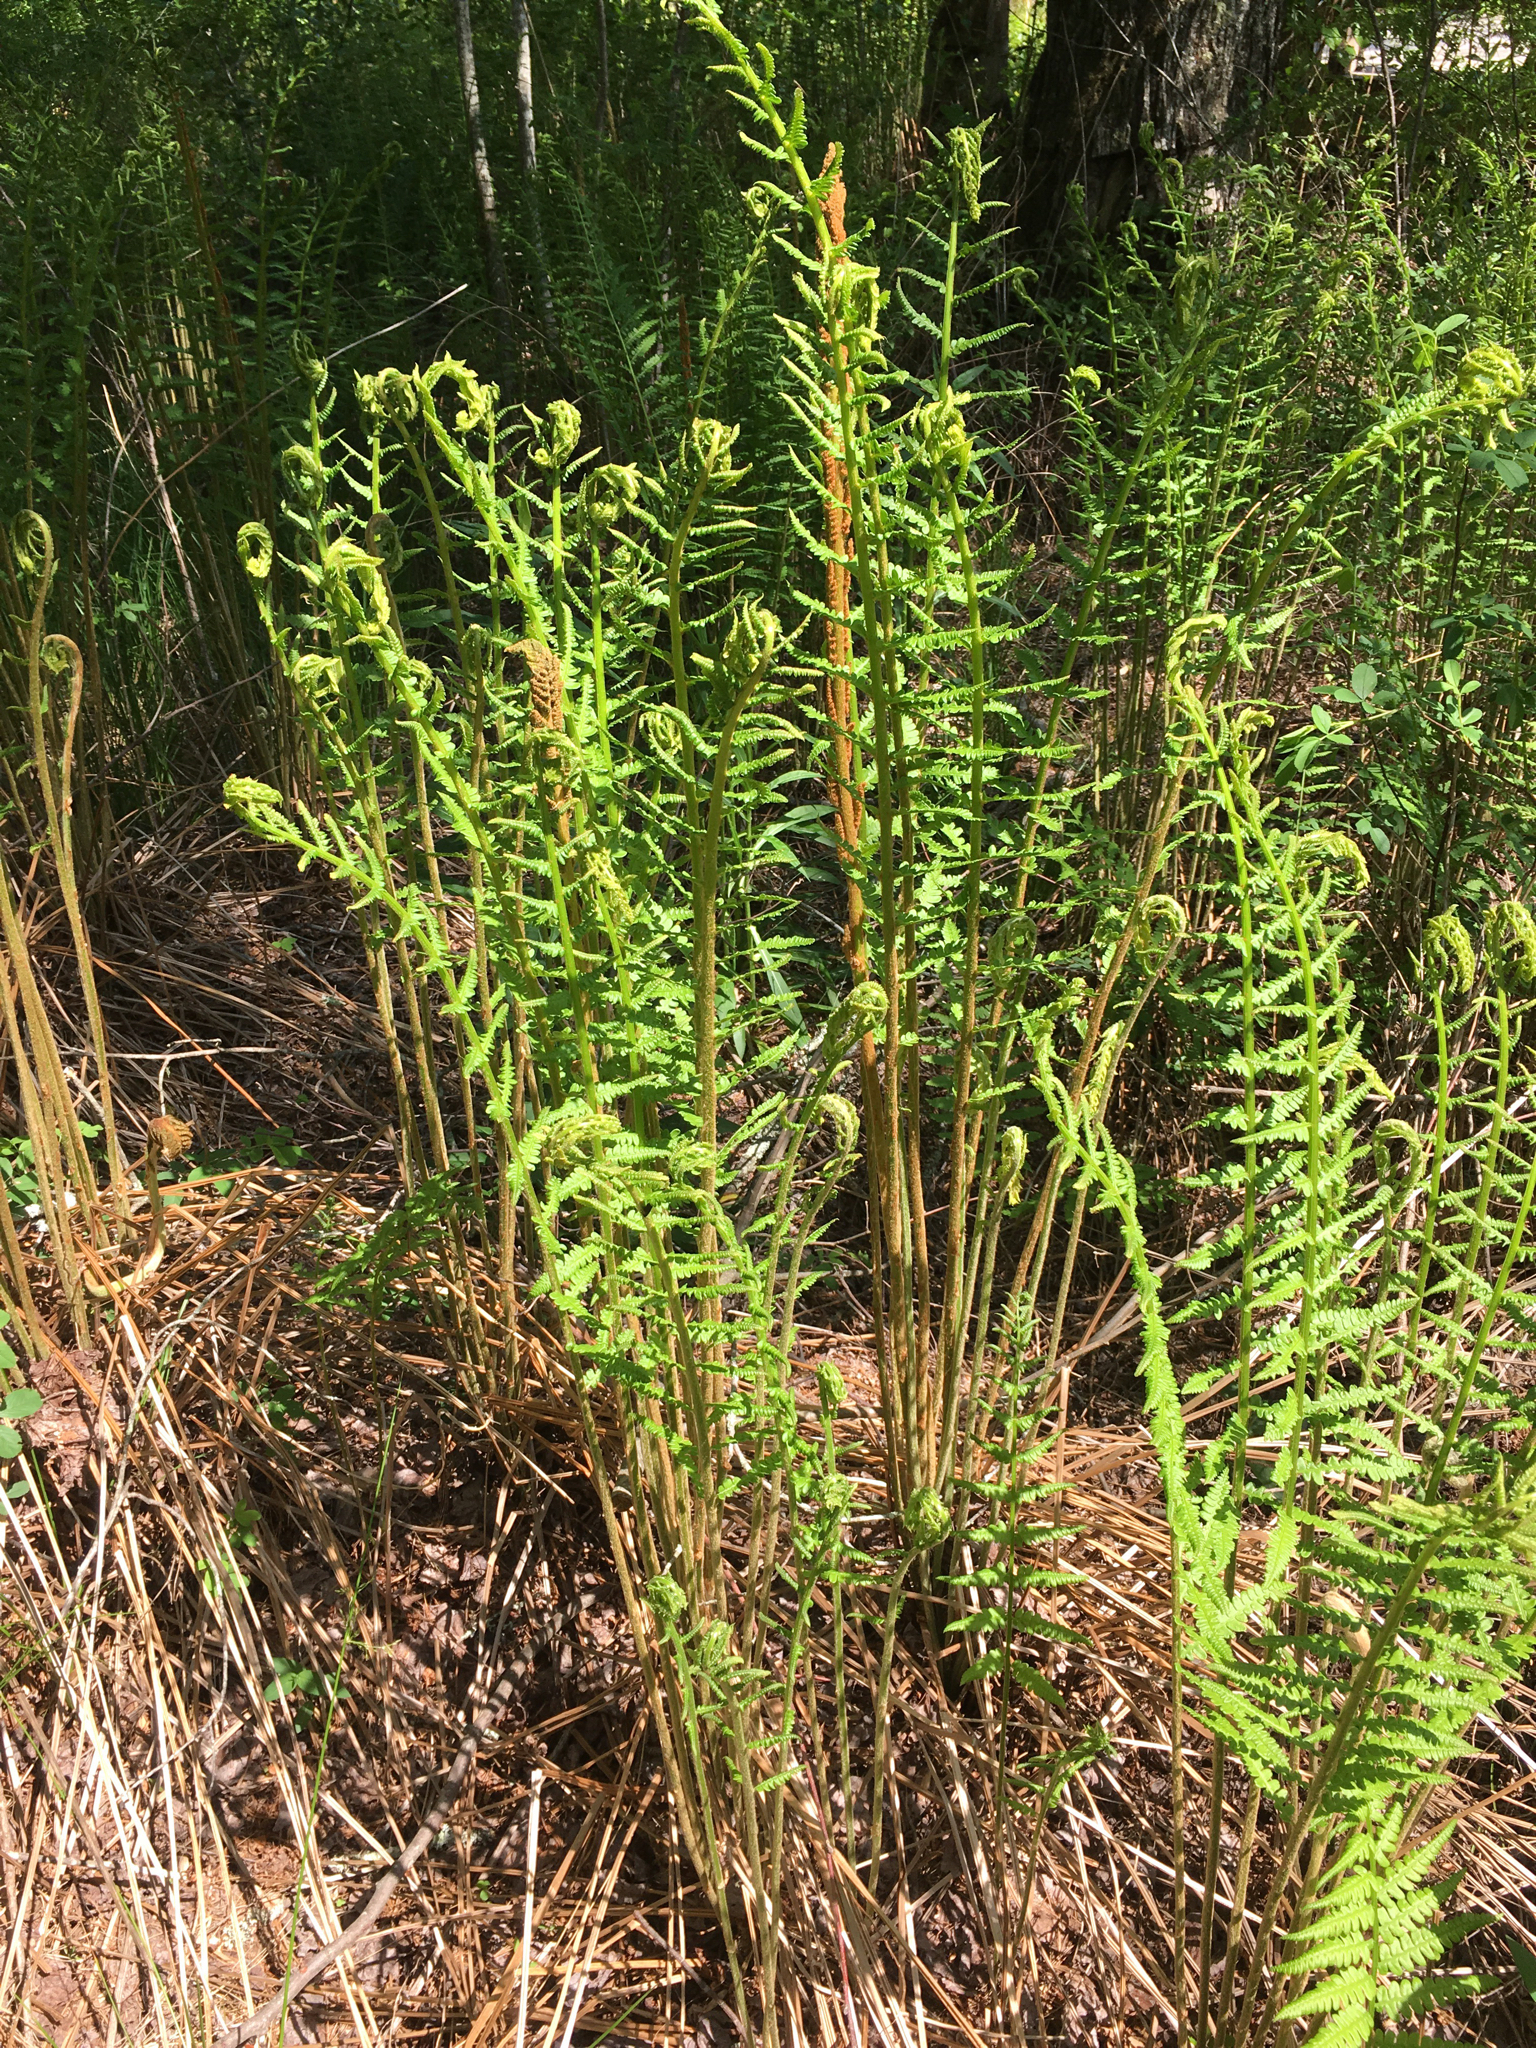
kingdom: Plantae
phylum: Tracheophyta
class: Polypodiopsida
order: Osmundales
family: Osmundaceae
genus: Osmundastrum
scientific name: Osmundastrum cinnamomeum
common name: Cinnamon fern
